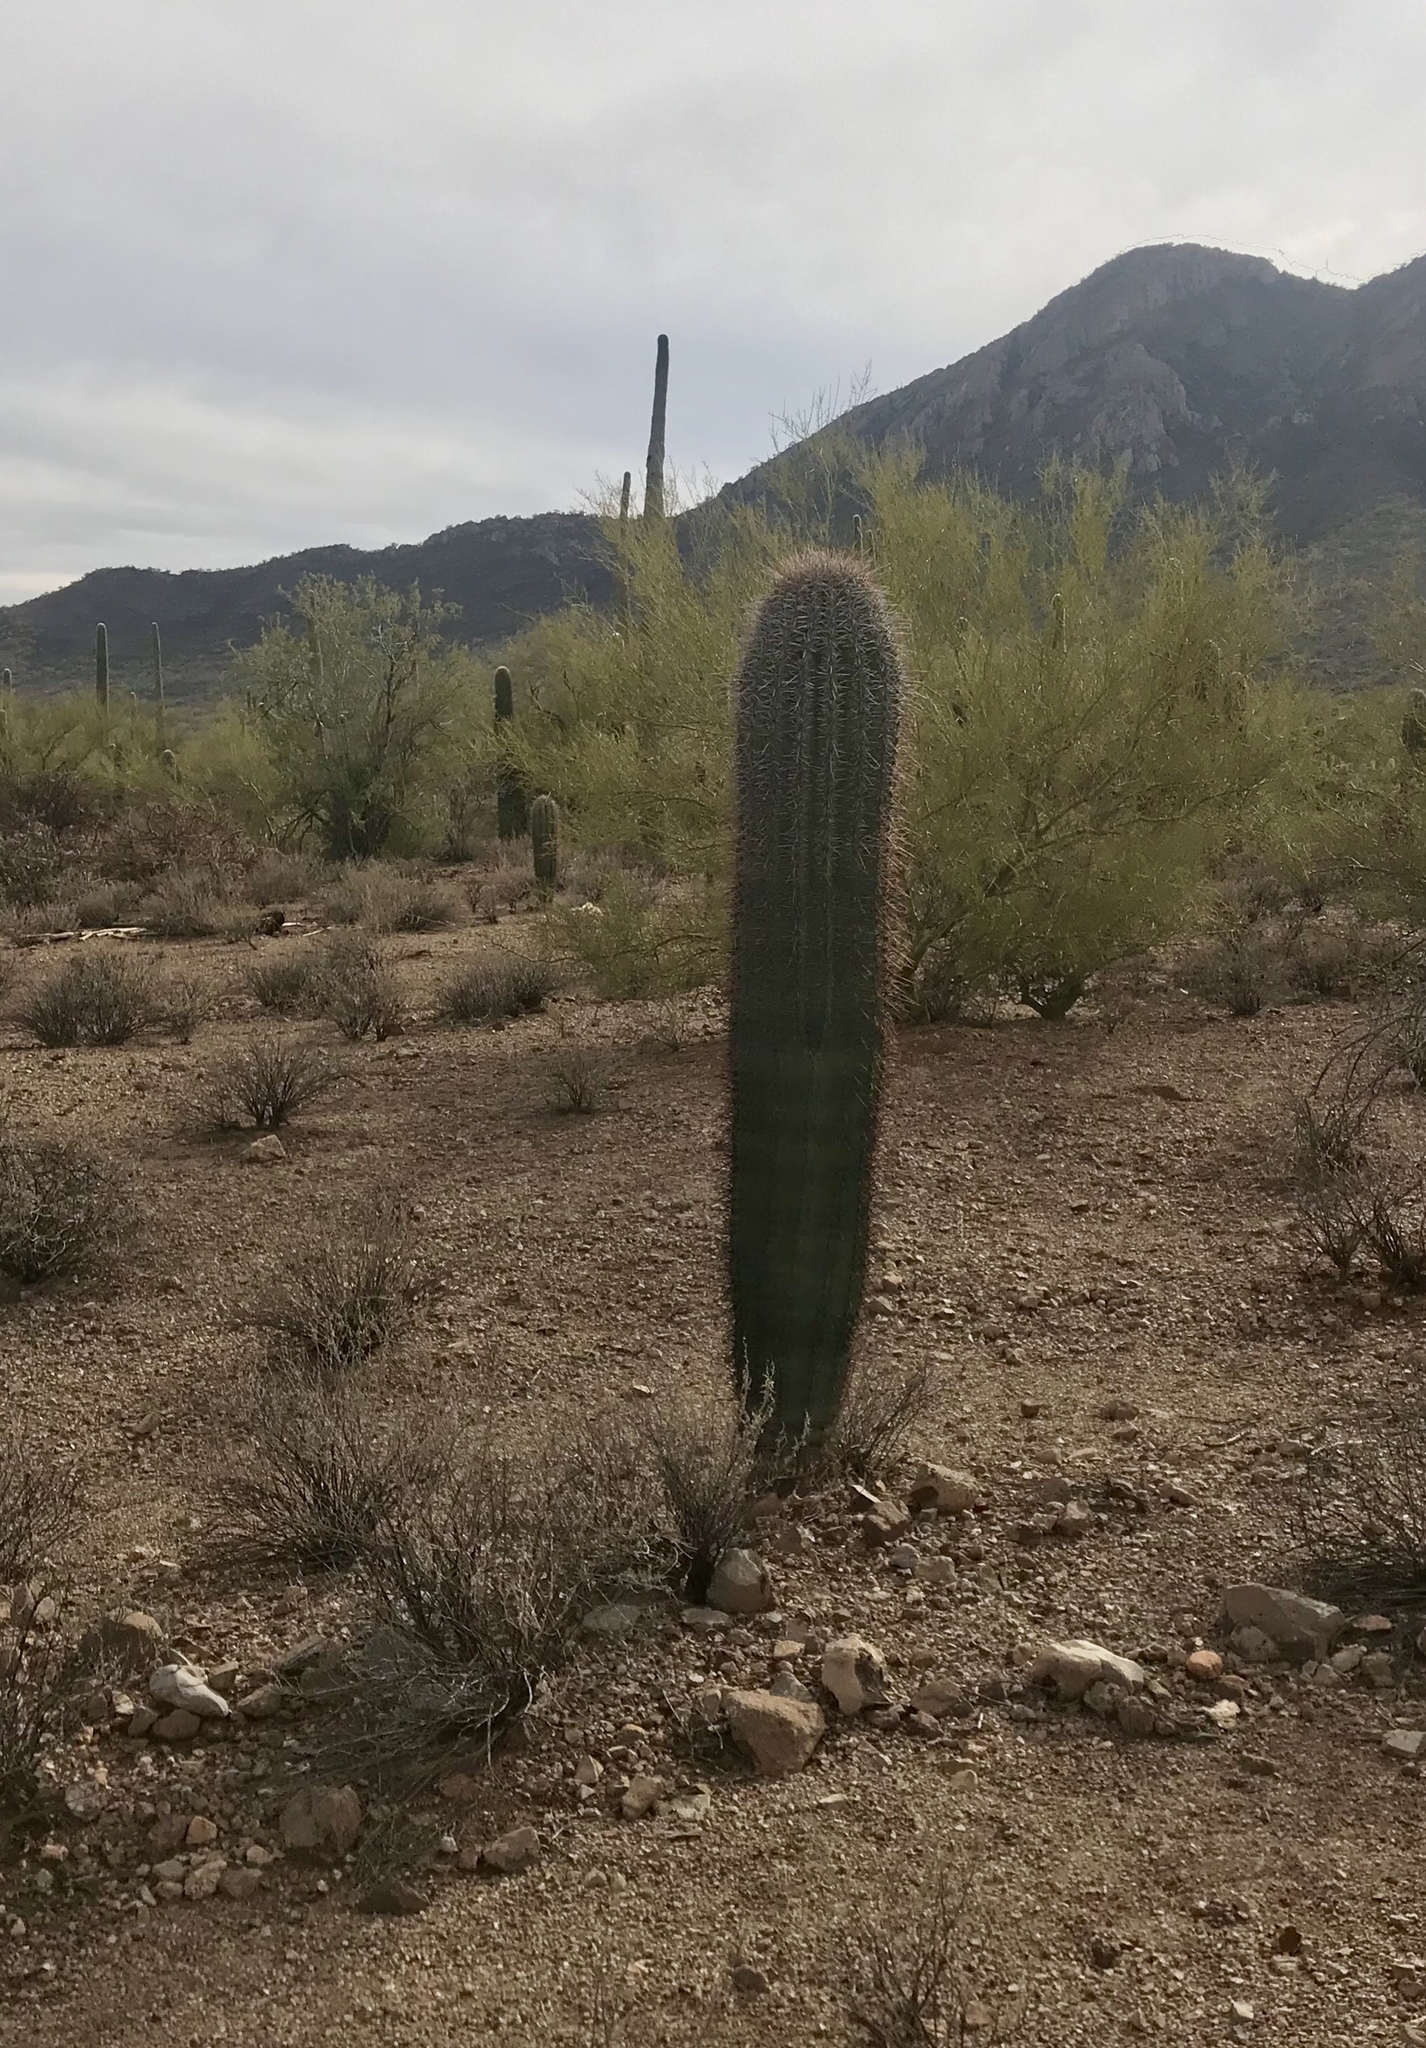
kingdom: Plantae
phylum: Tracheophyta
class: Magnoliopsida
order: Caryophyllales
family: Cactaceae
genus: Carnegiea
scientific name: Carnegiea gigantea
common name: Saguaro
